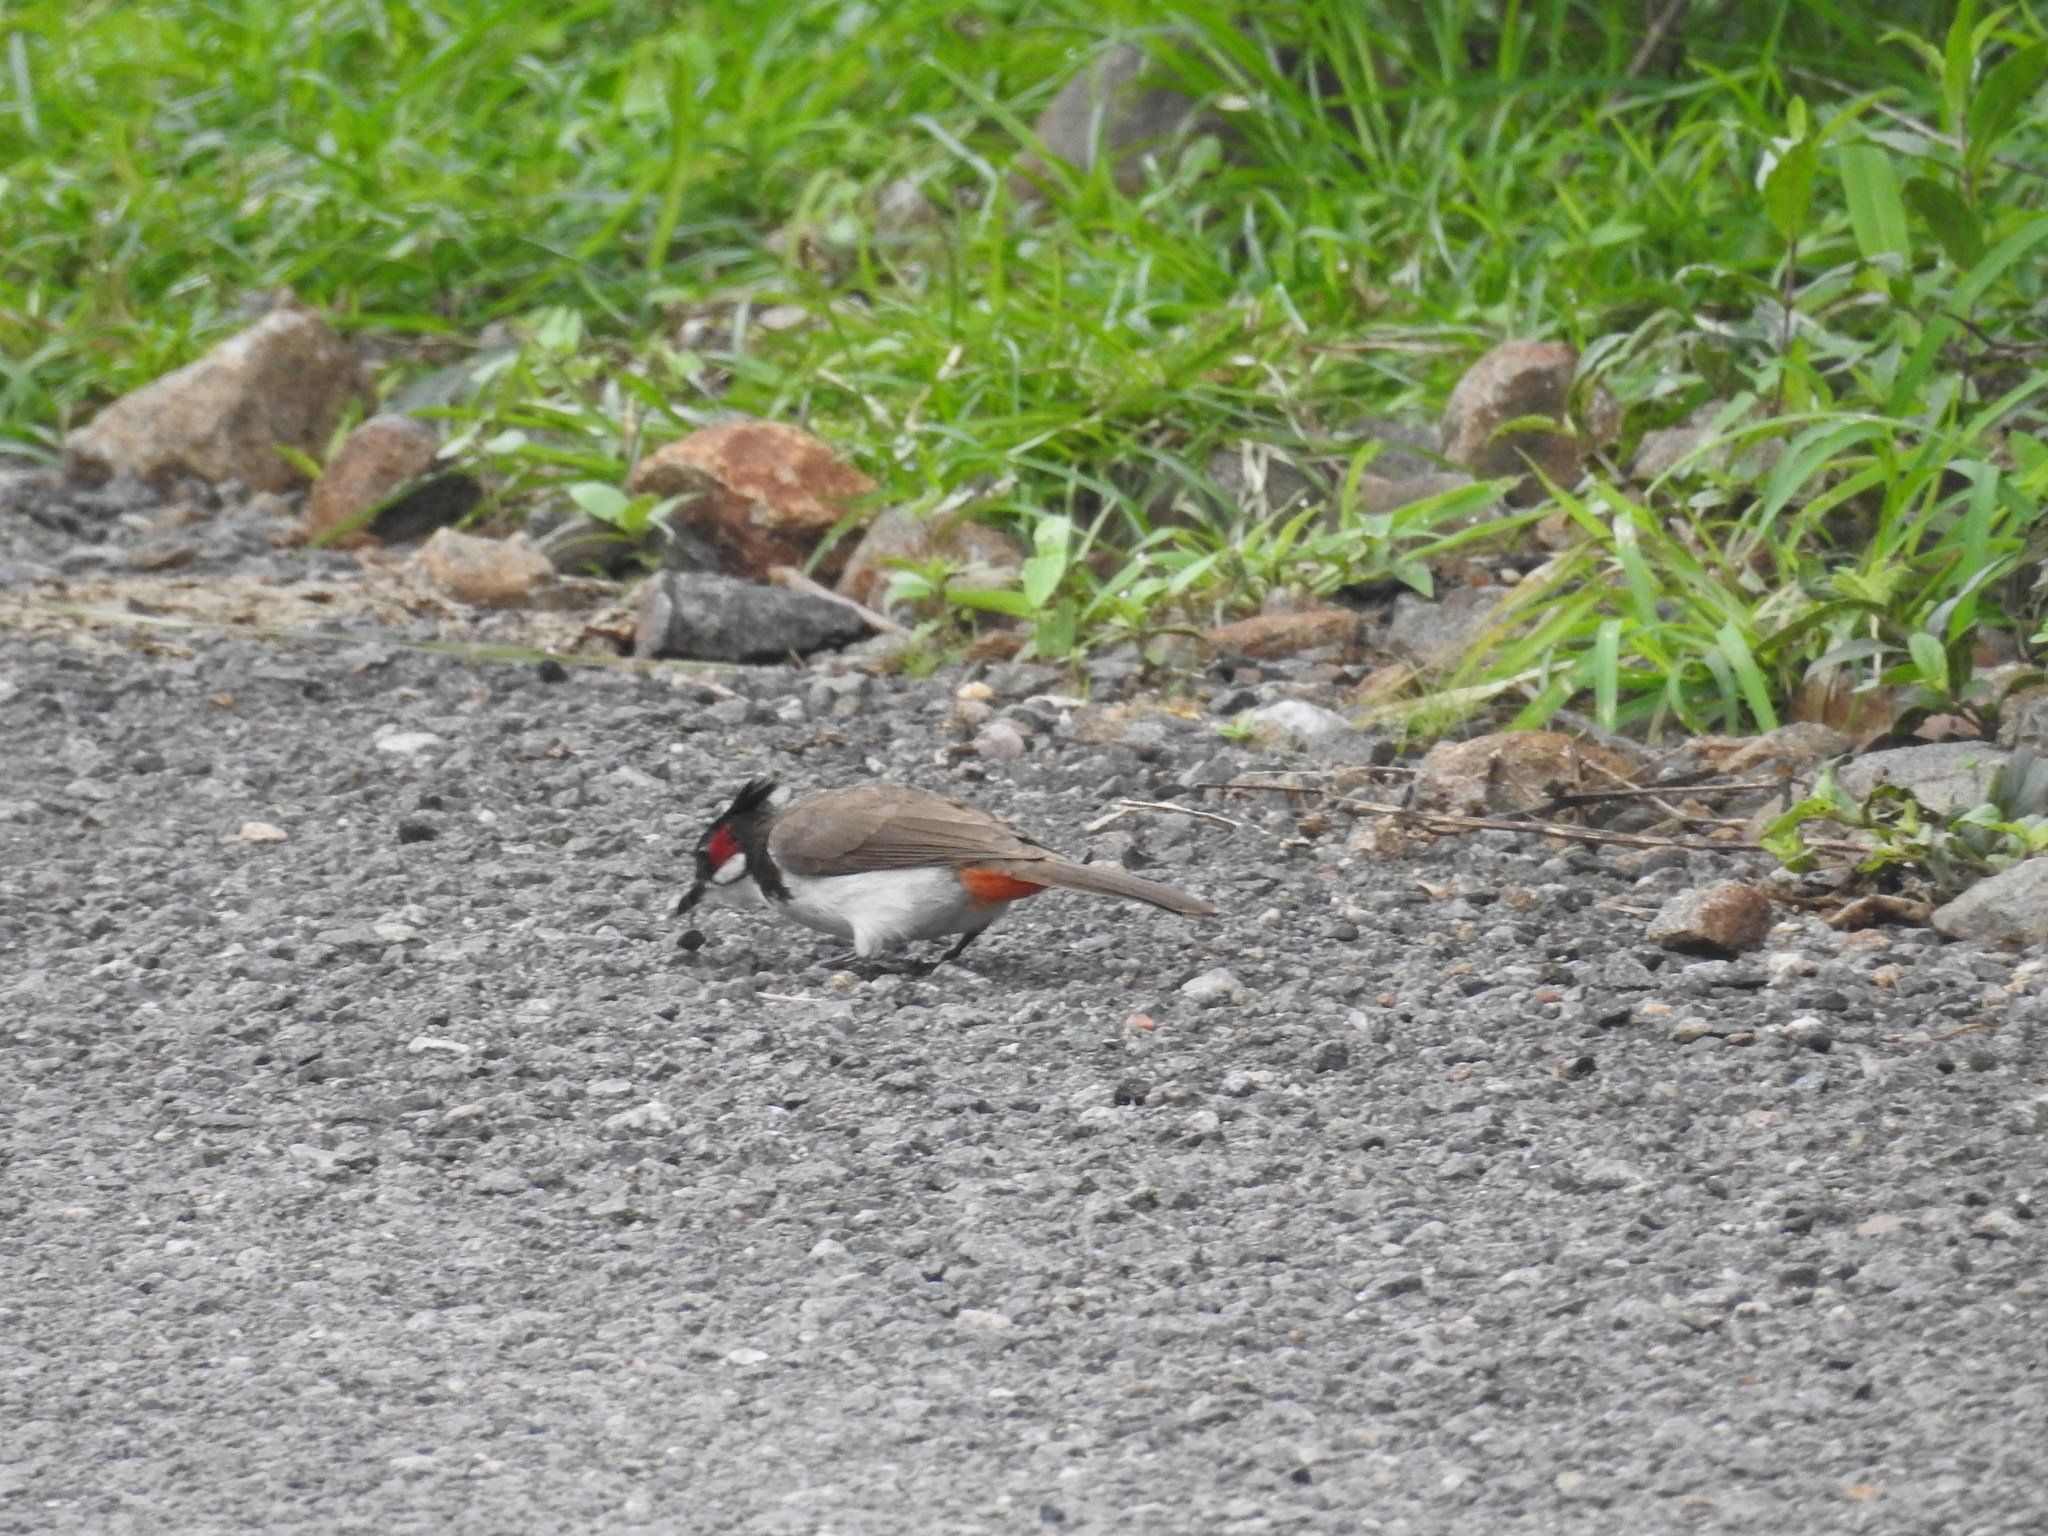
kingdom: Animalia
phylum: Chordata
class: Aves
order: Passeriformes
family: Pycnonotidae
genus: Pycnonotus
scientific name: Pycnonotus jocosus
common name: Red-whiskered bulbul
